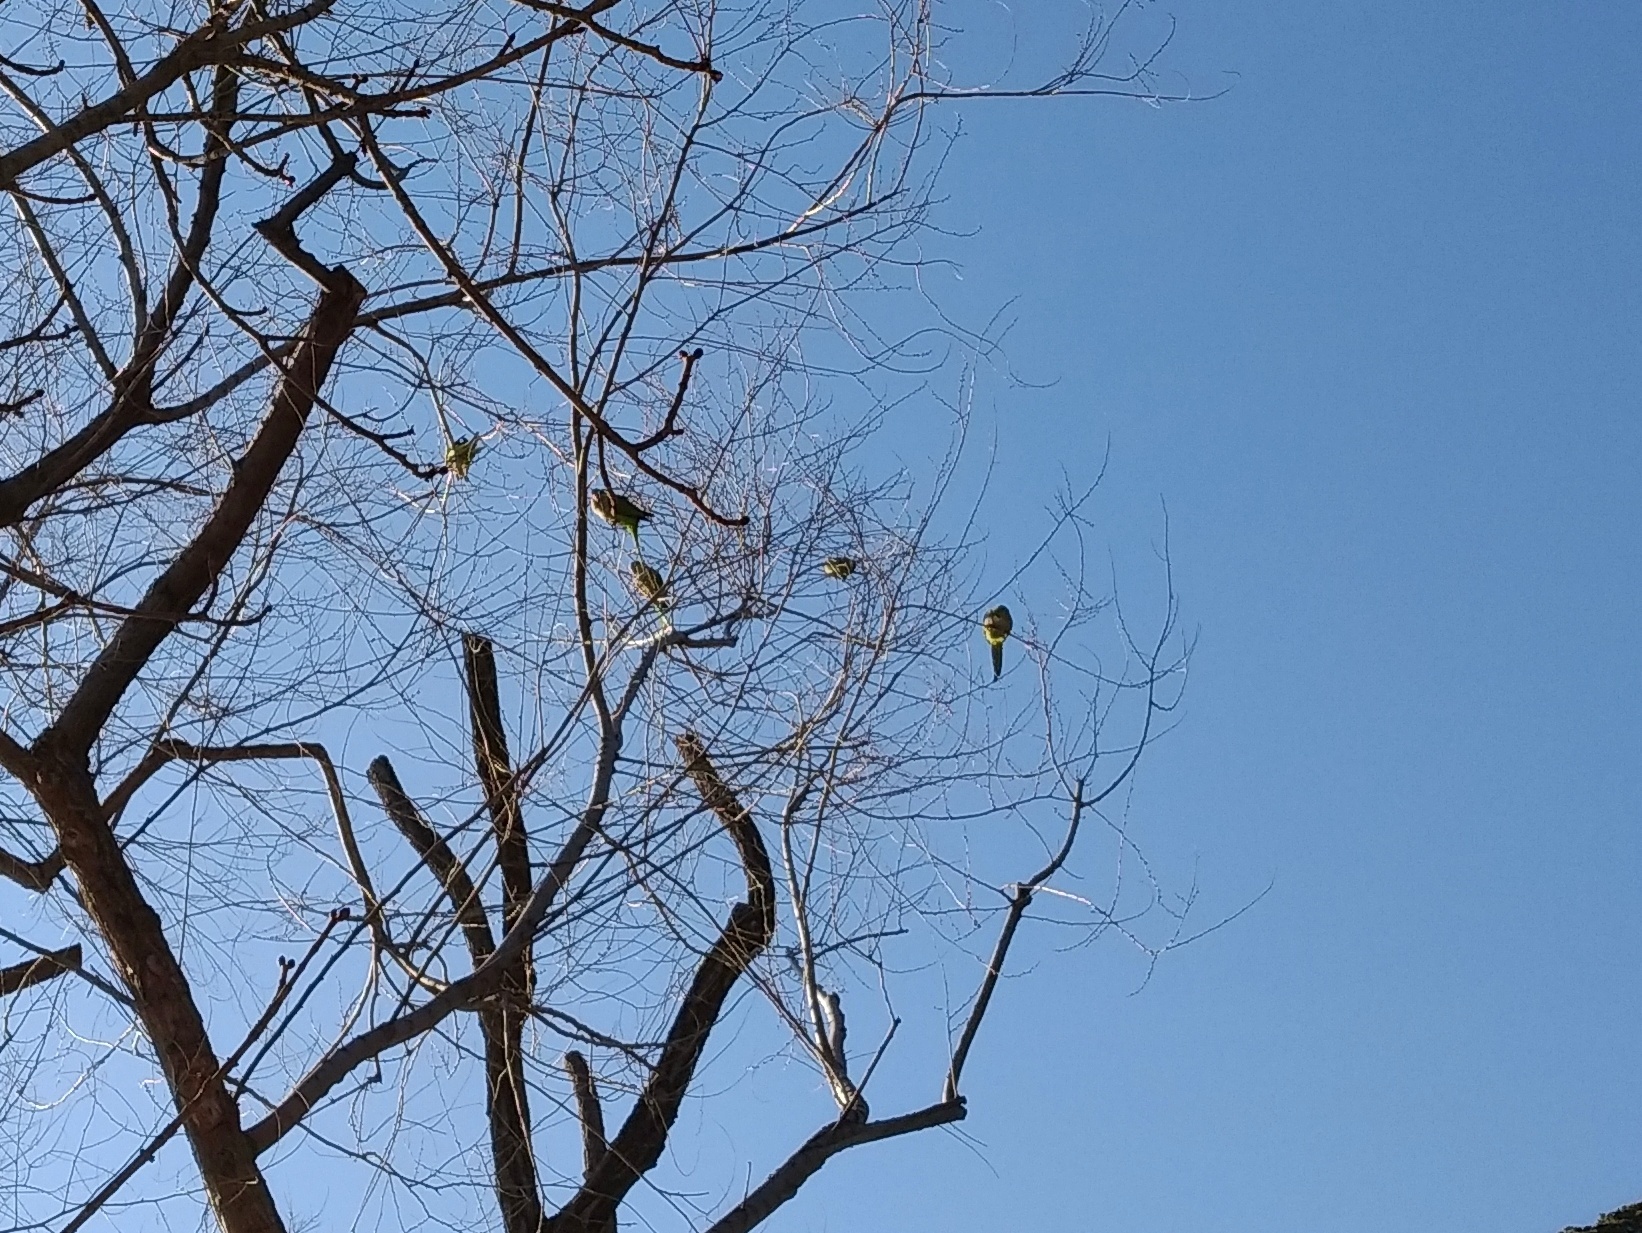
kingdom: Animalia
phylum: Chordata
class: Aves
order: Psittaciformes
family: Psittacidae
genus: Myiopsitta
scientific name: Myiopsitta monachus
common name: Monk parakeet
